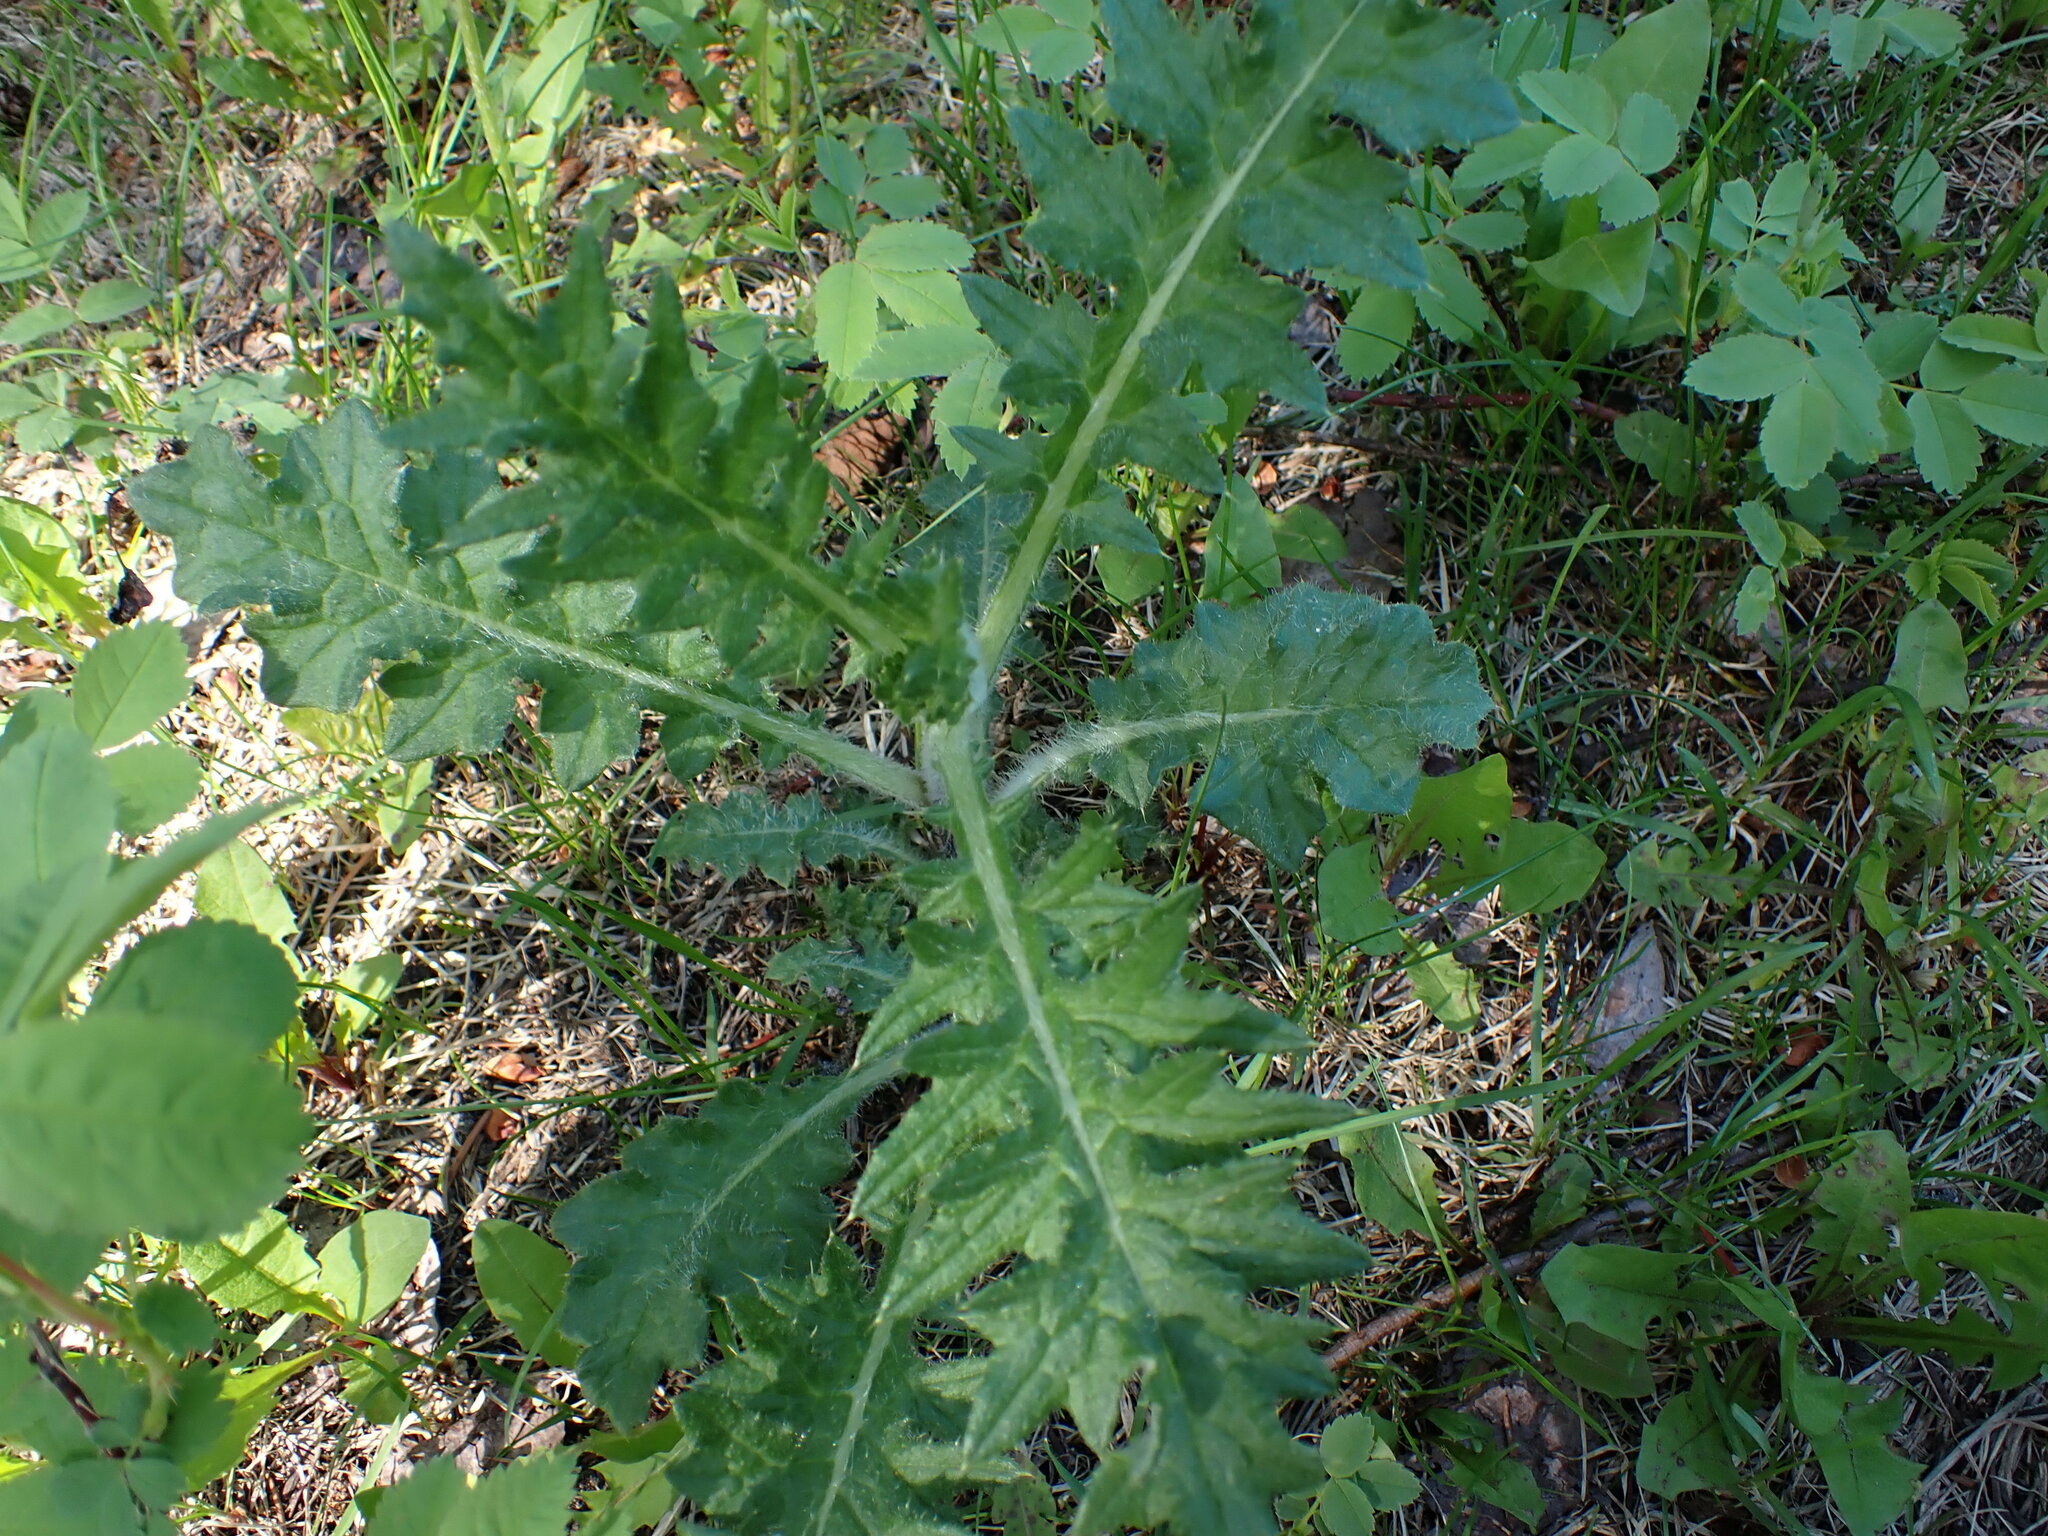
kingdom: Plantae
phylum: Tracheophyta
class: Magnoliopsida
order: Asterales
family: Asteraceae
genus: Cirsium
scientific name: Cirsium vulgare
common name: Bull thistle
